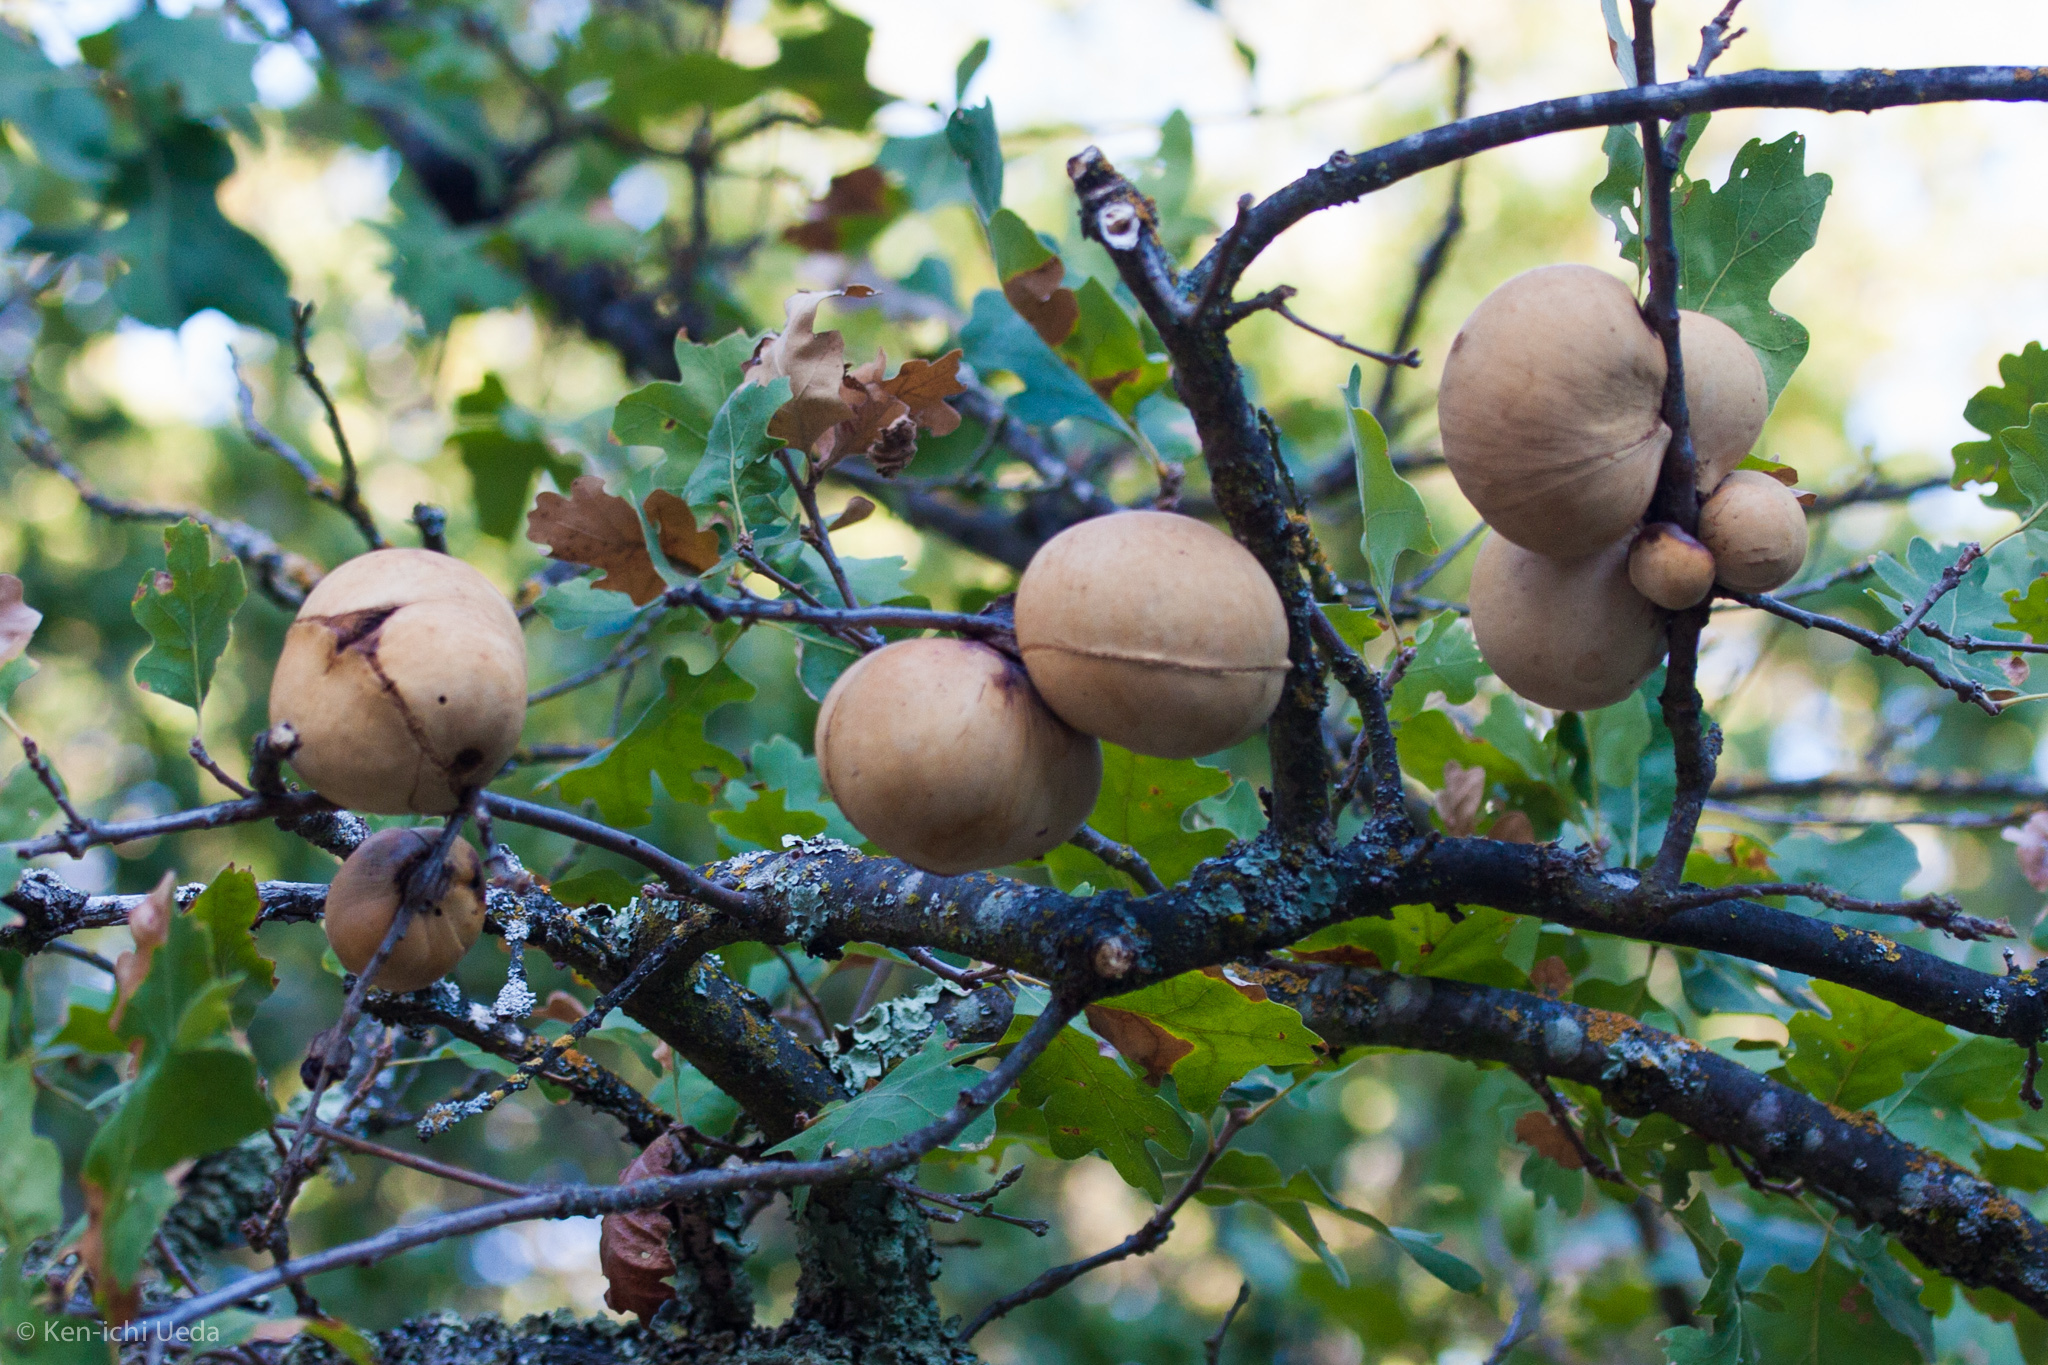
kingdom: Animalia
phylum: Arthropoda
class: Insecta
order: Hymenoptera
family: Cynipidae
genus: Andricus
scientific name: Andricus quercuscalifornicus
